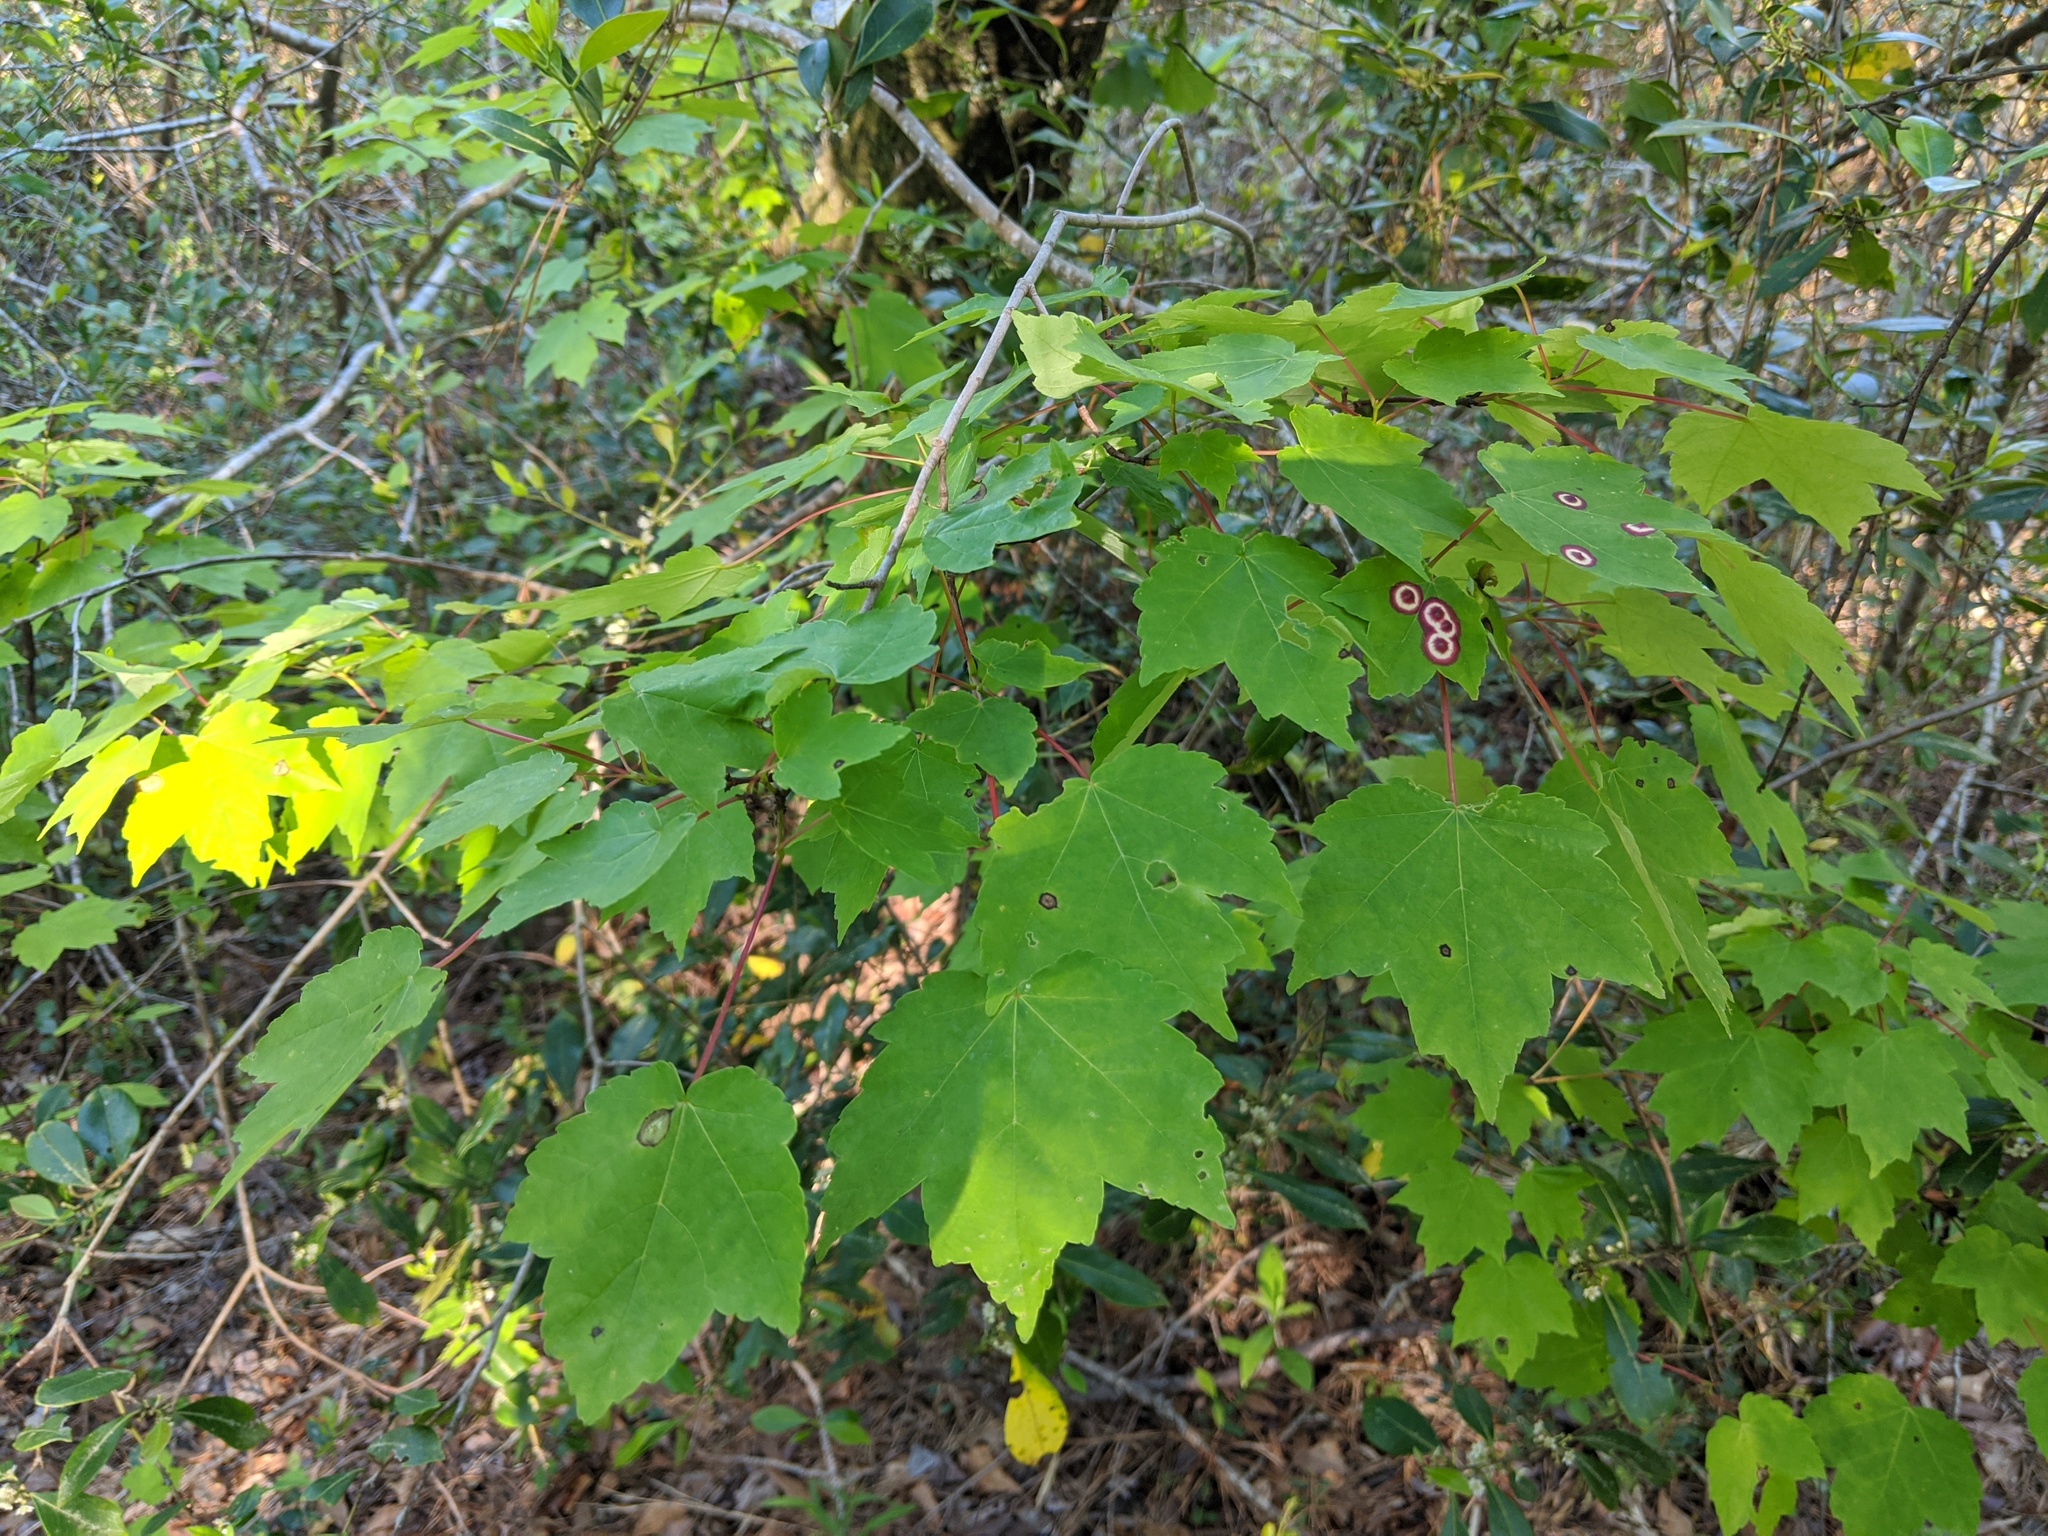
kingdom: Plantae
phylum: Tracheophyta
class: Magnoliopsida
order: Sapindales
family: Sapindaceae
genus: Acer
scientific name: Acer rubrum
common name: Red maple
